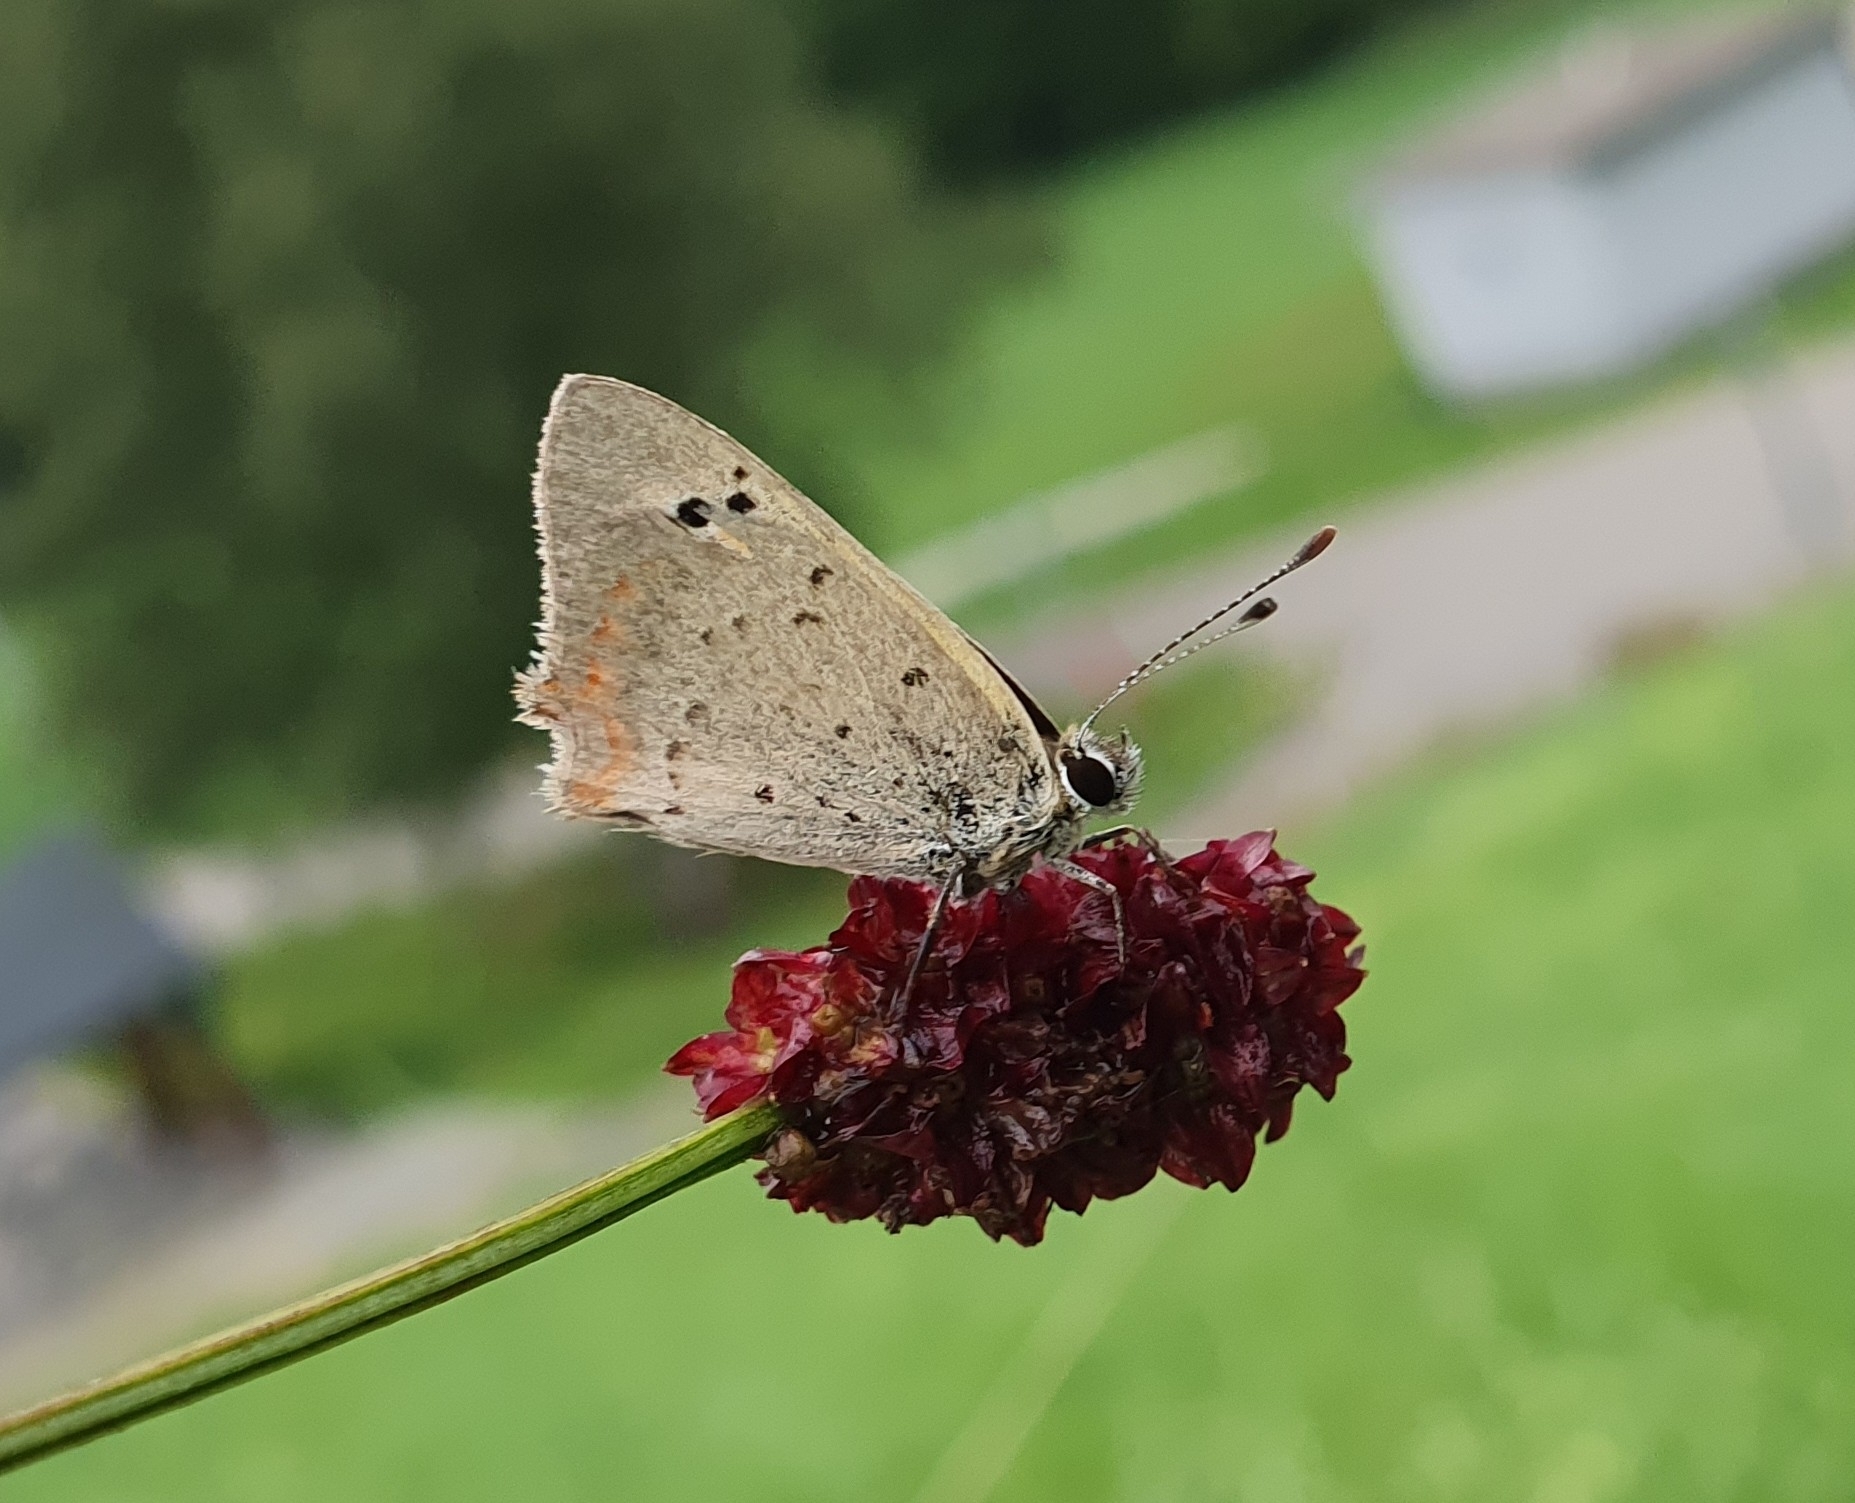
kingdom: Animalia
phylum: Arthropoda
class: Insecta
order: Lepidoptera
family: Lycaenidae
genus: Lycaena
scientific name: Lycaena phlaeas
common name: Small copper
